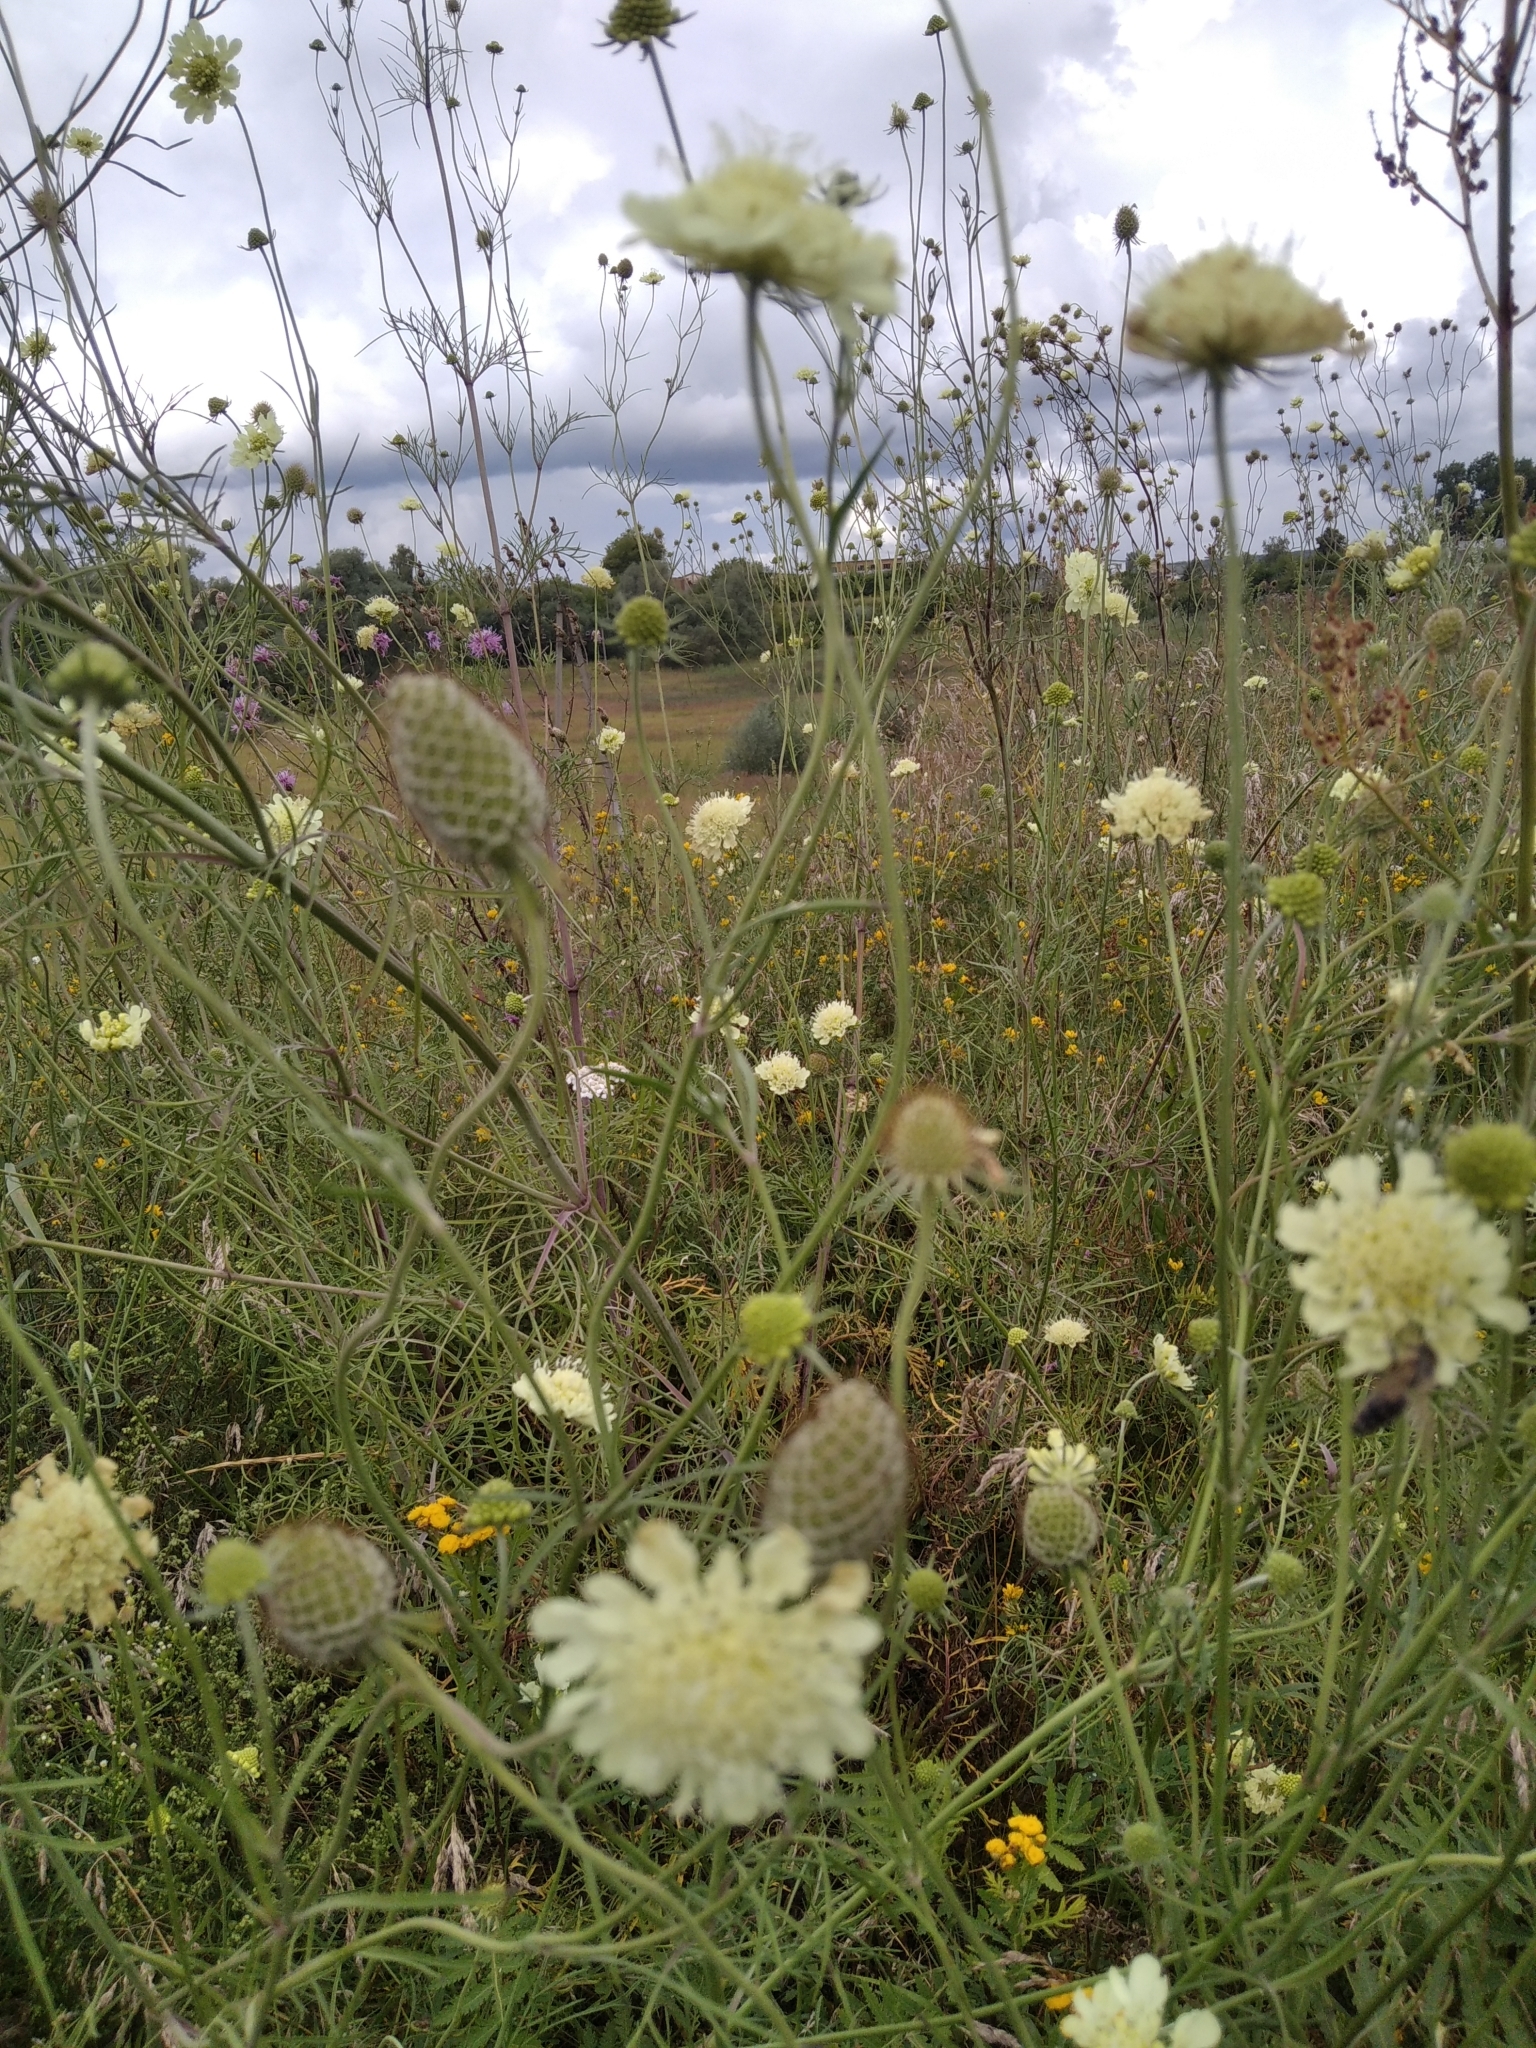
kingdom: Plantae
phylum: Tracheophyta
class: Magnoliopsida
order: Dipsacales
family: Caprifoliaceae
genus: Scabiosa
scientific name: Scabiosa ochroleuca
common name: Cream pincushions
